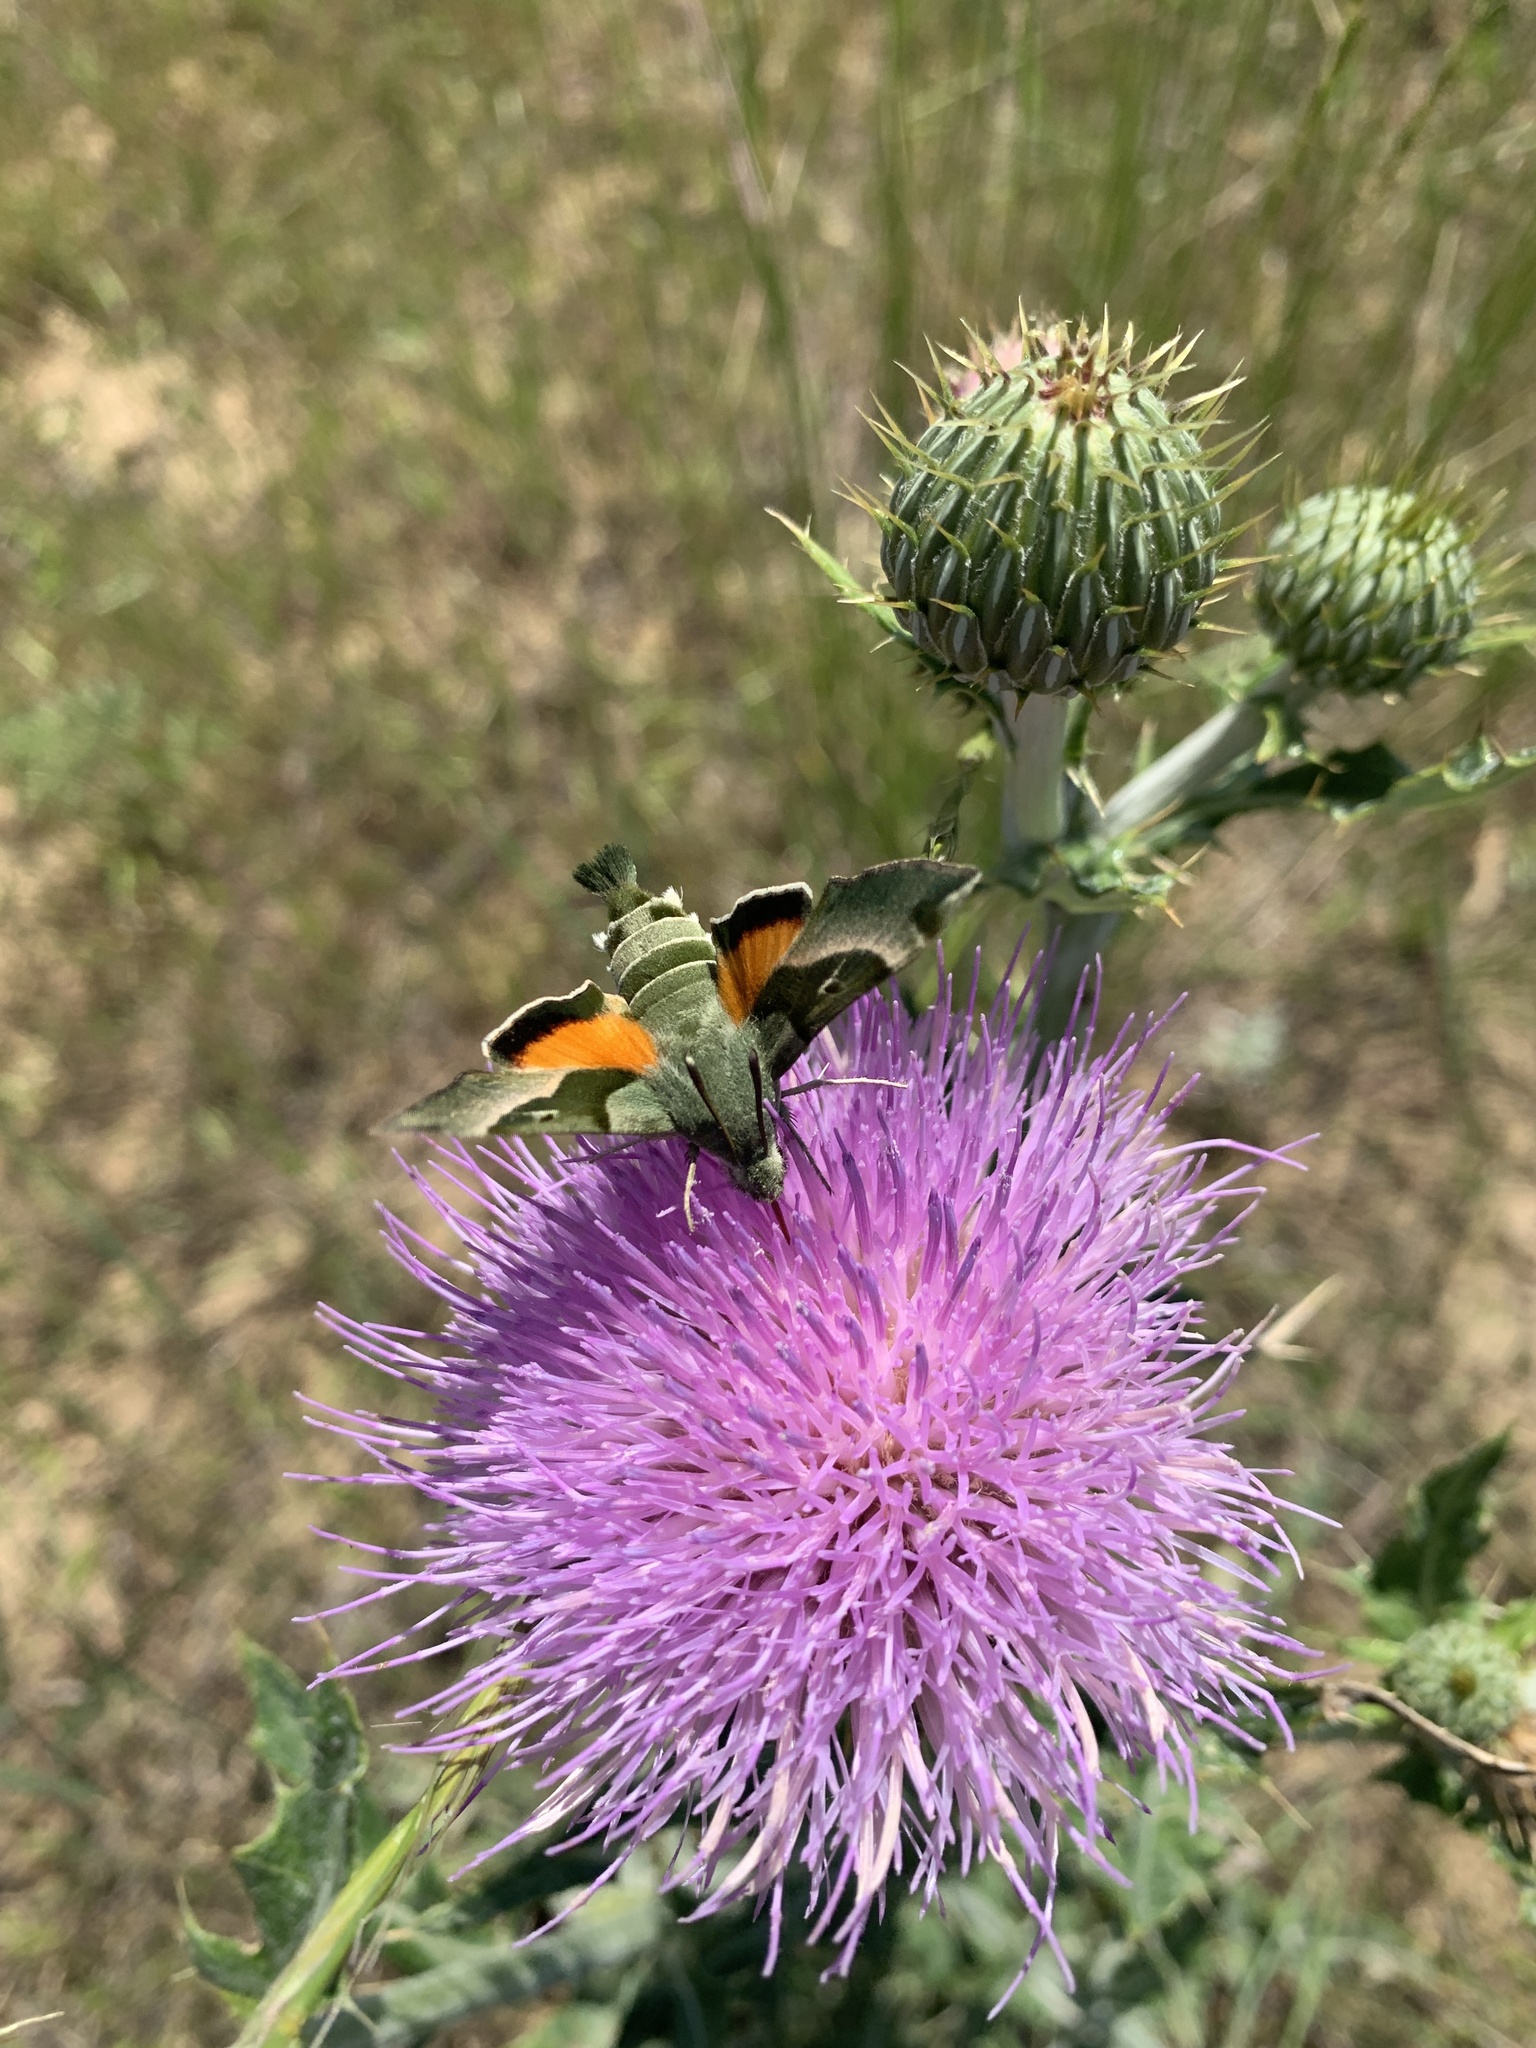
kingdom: Animalia
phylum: Arthropoda
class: Insecta
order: Lepidoptera
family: Sphingidae
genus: Proserpinus
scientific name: Proserpinus juanita
